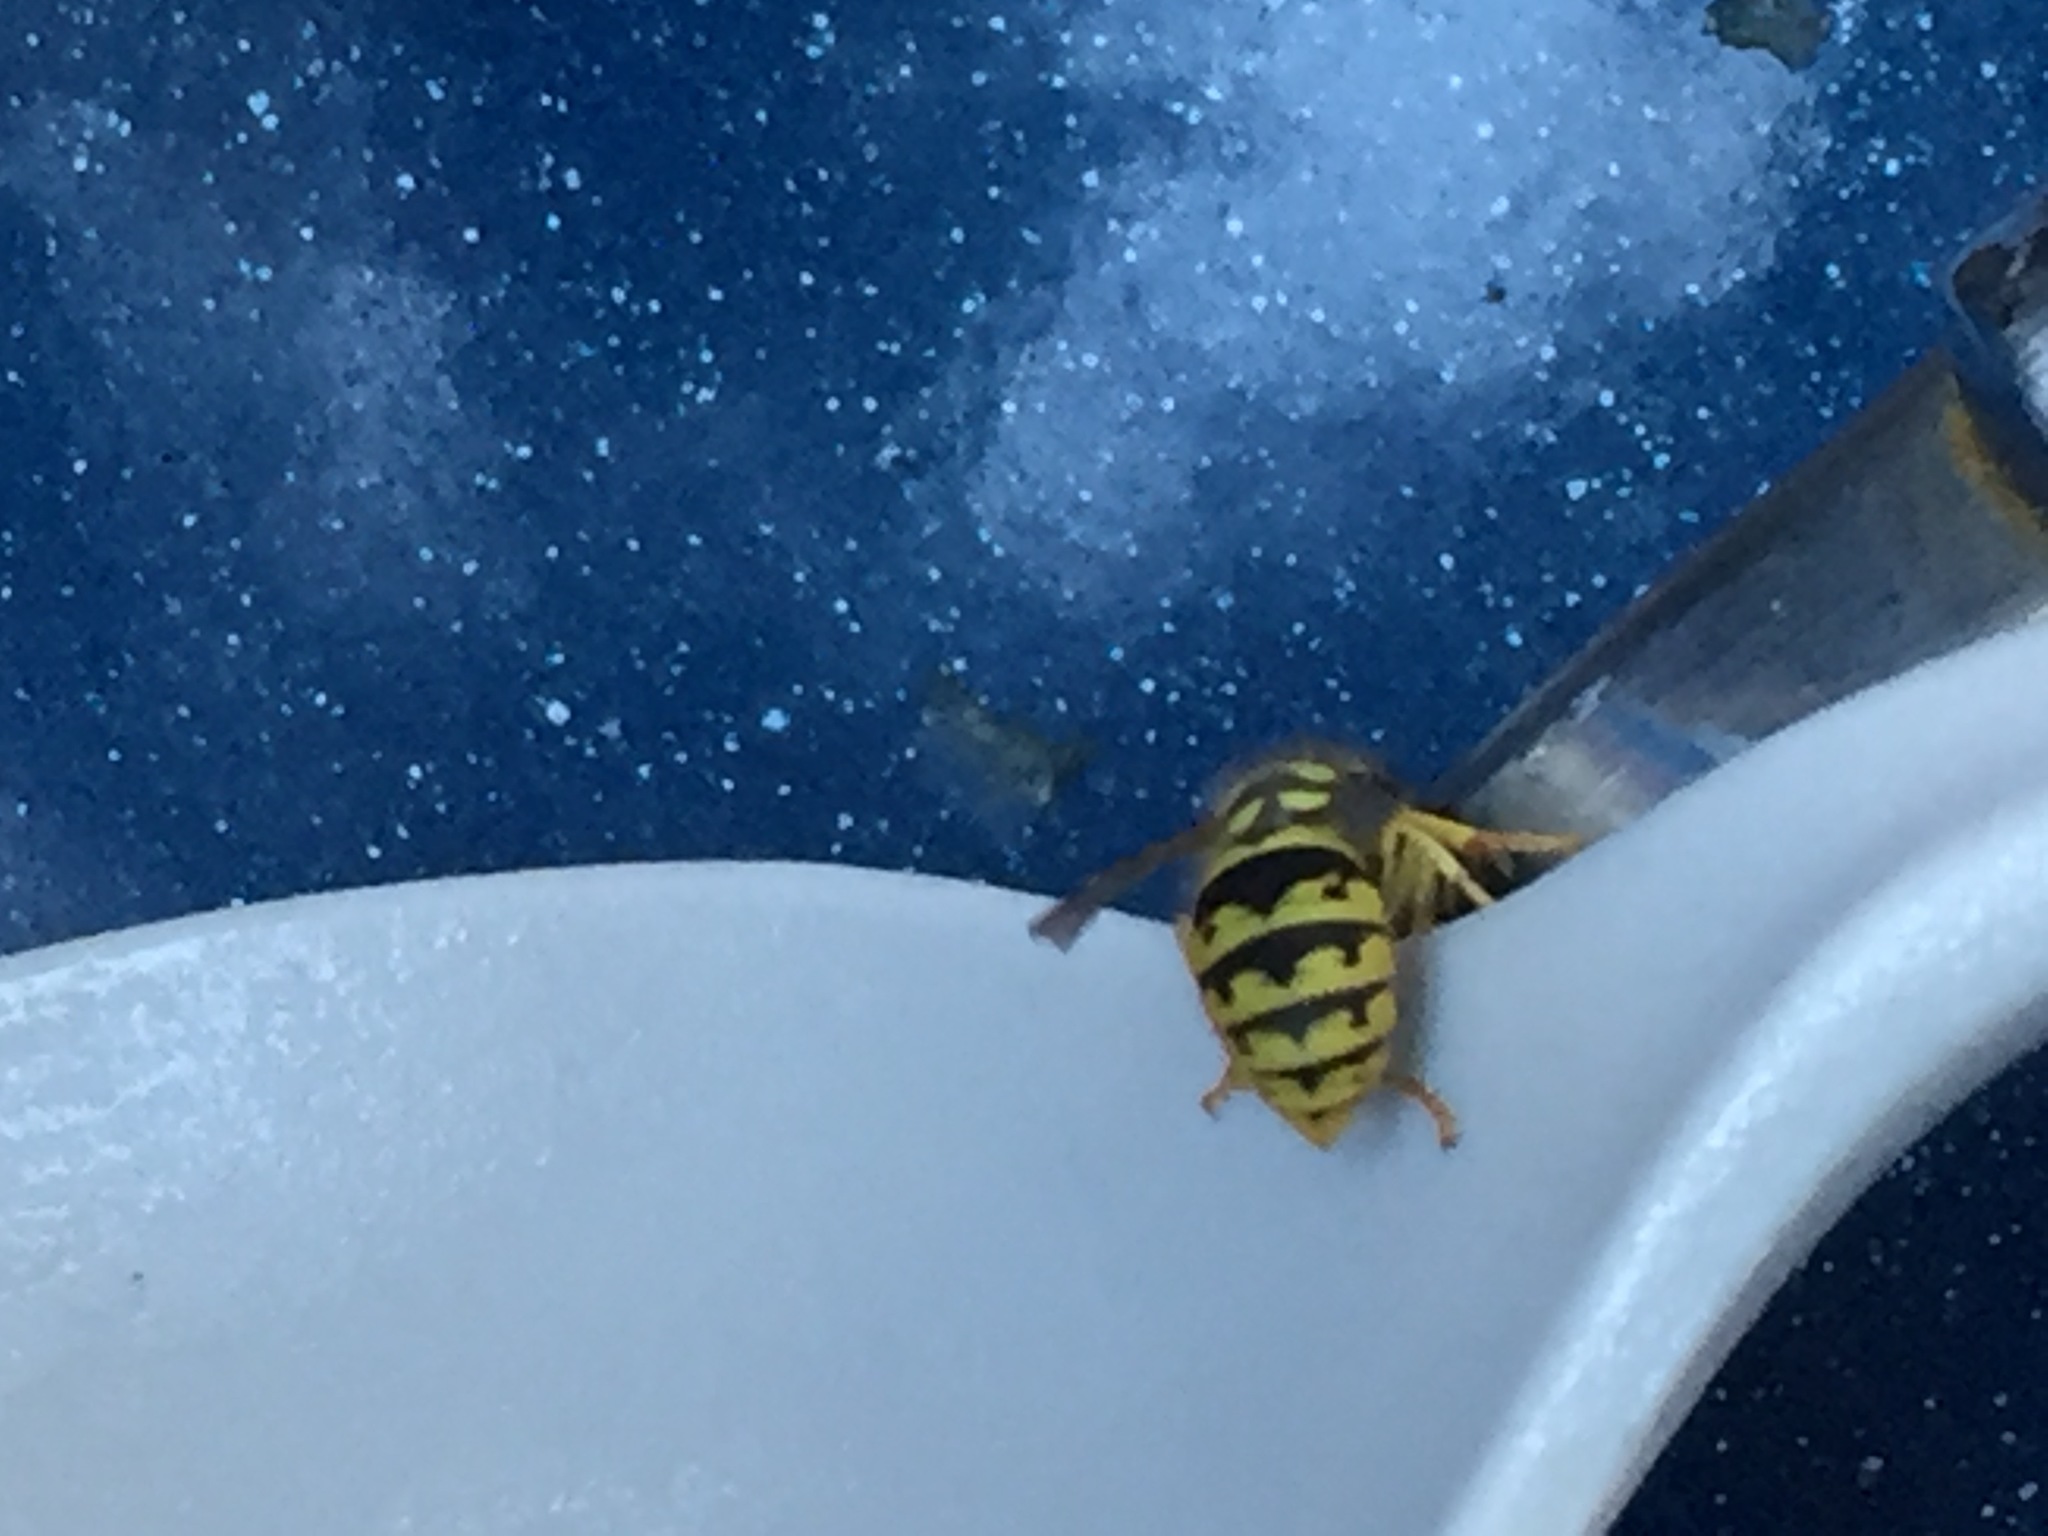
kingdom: Animalia
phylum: Arthropoda
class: Insecta
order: Hymenoptera
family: Vespidae
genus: Vespula
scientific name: Vespula
